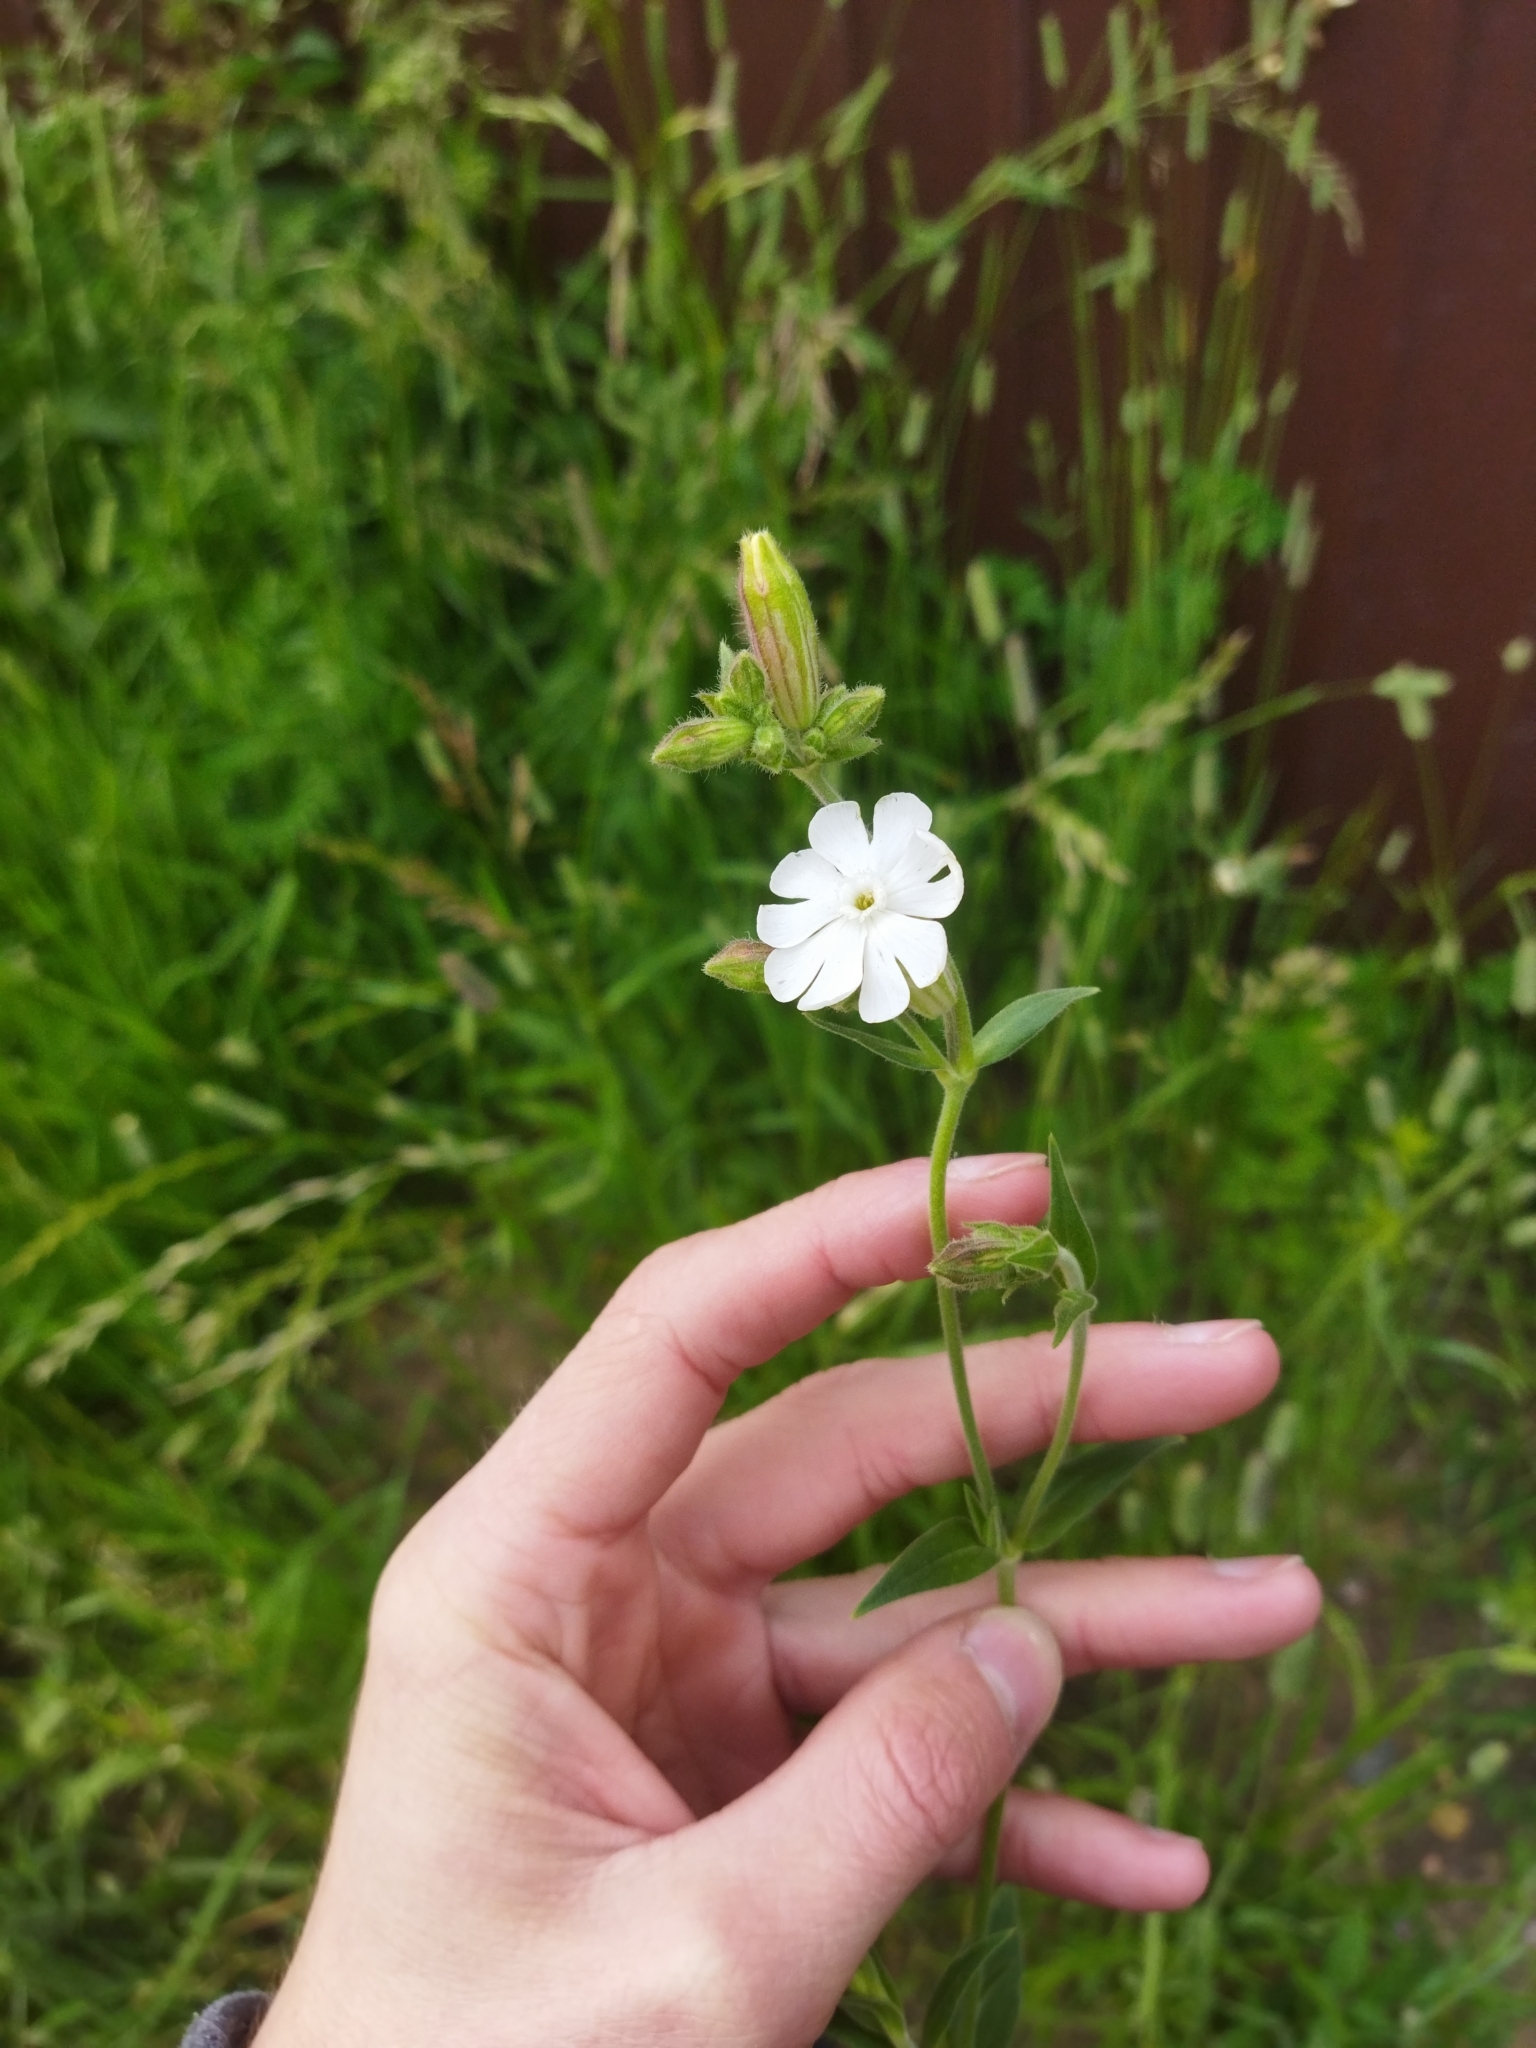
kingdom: Plantae
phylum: Tracheophyta
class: Magnoliopsida
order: Caryophyllales
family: Caryophyllaceae
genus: Silene
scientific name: Silene latifolia
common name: White campion
